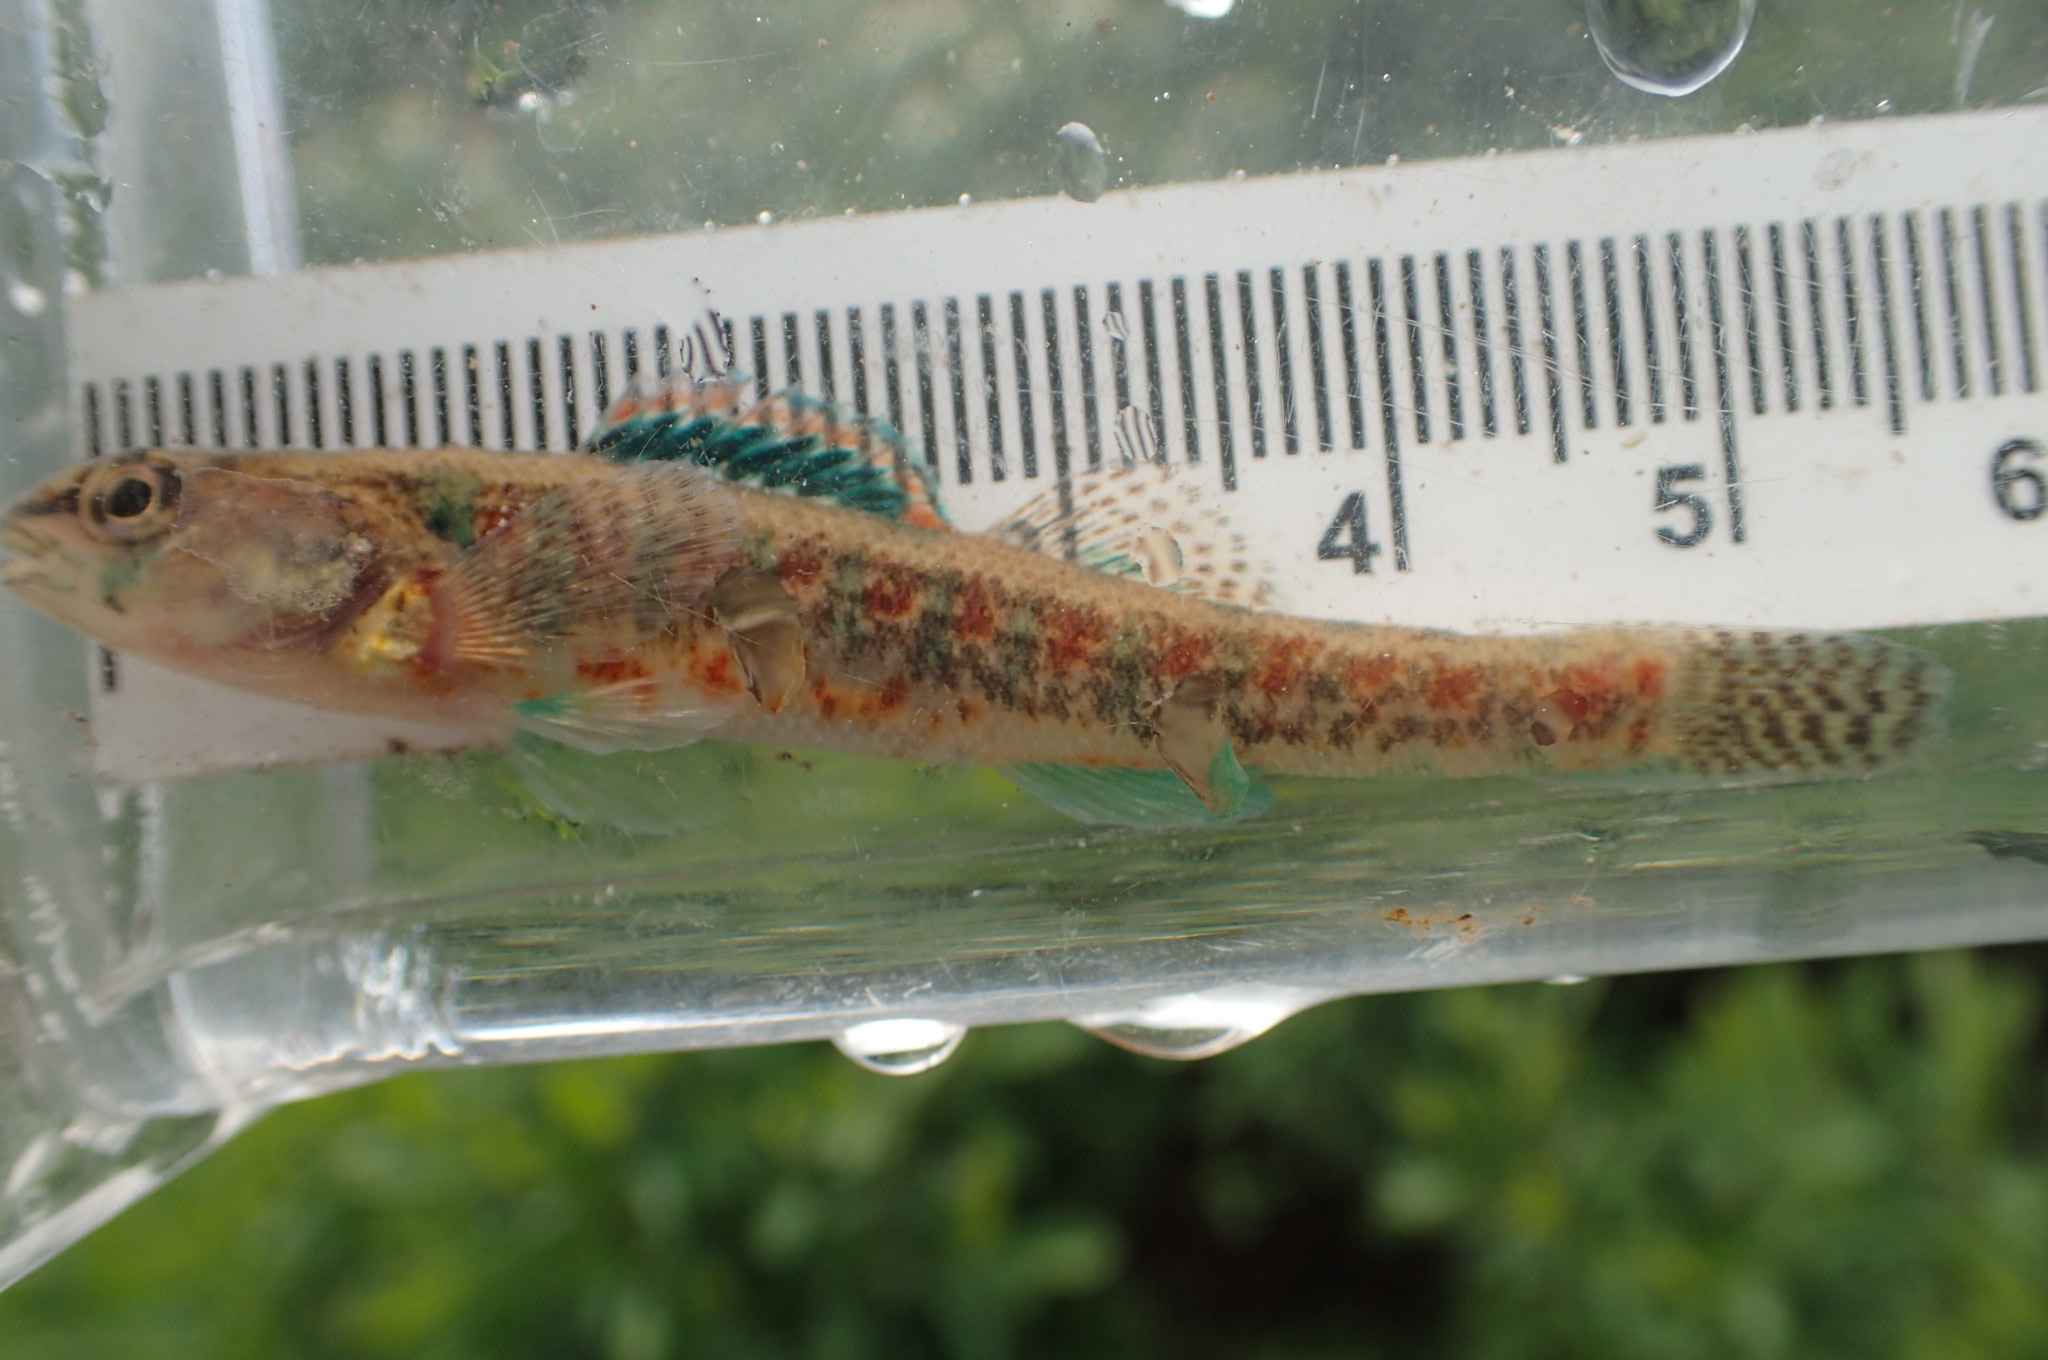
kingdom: Animalia
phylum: Chordata
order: Perciformes
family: Percidae
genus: Etheostoma
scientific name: Etheostoma exile
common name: Iowa darter
